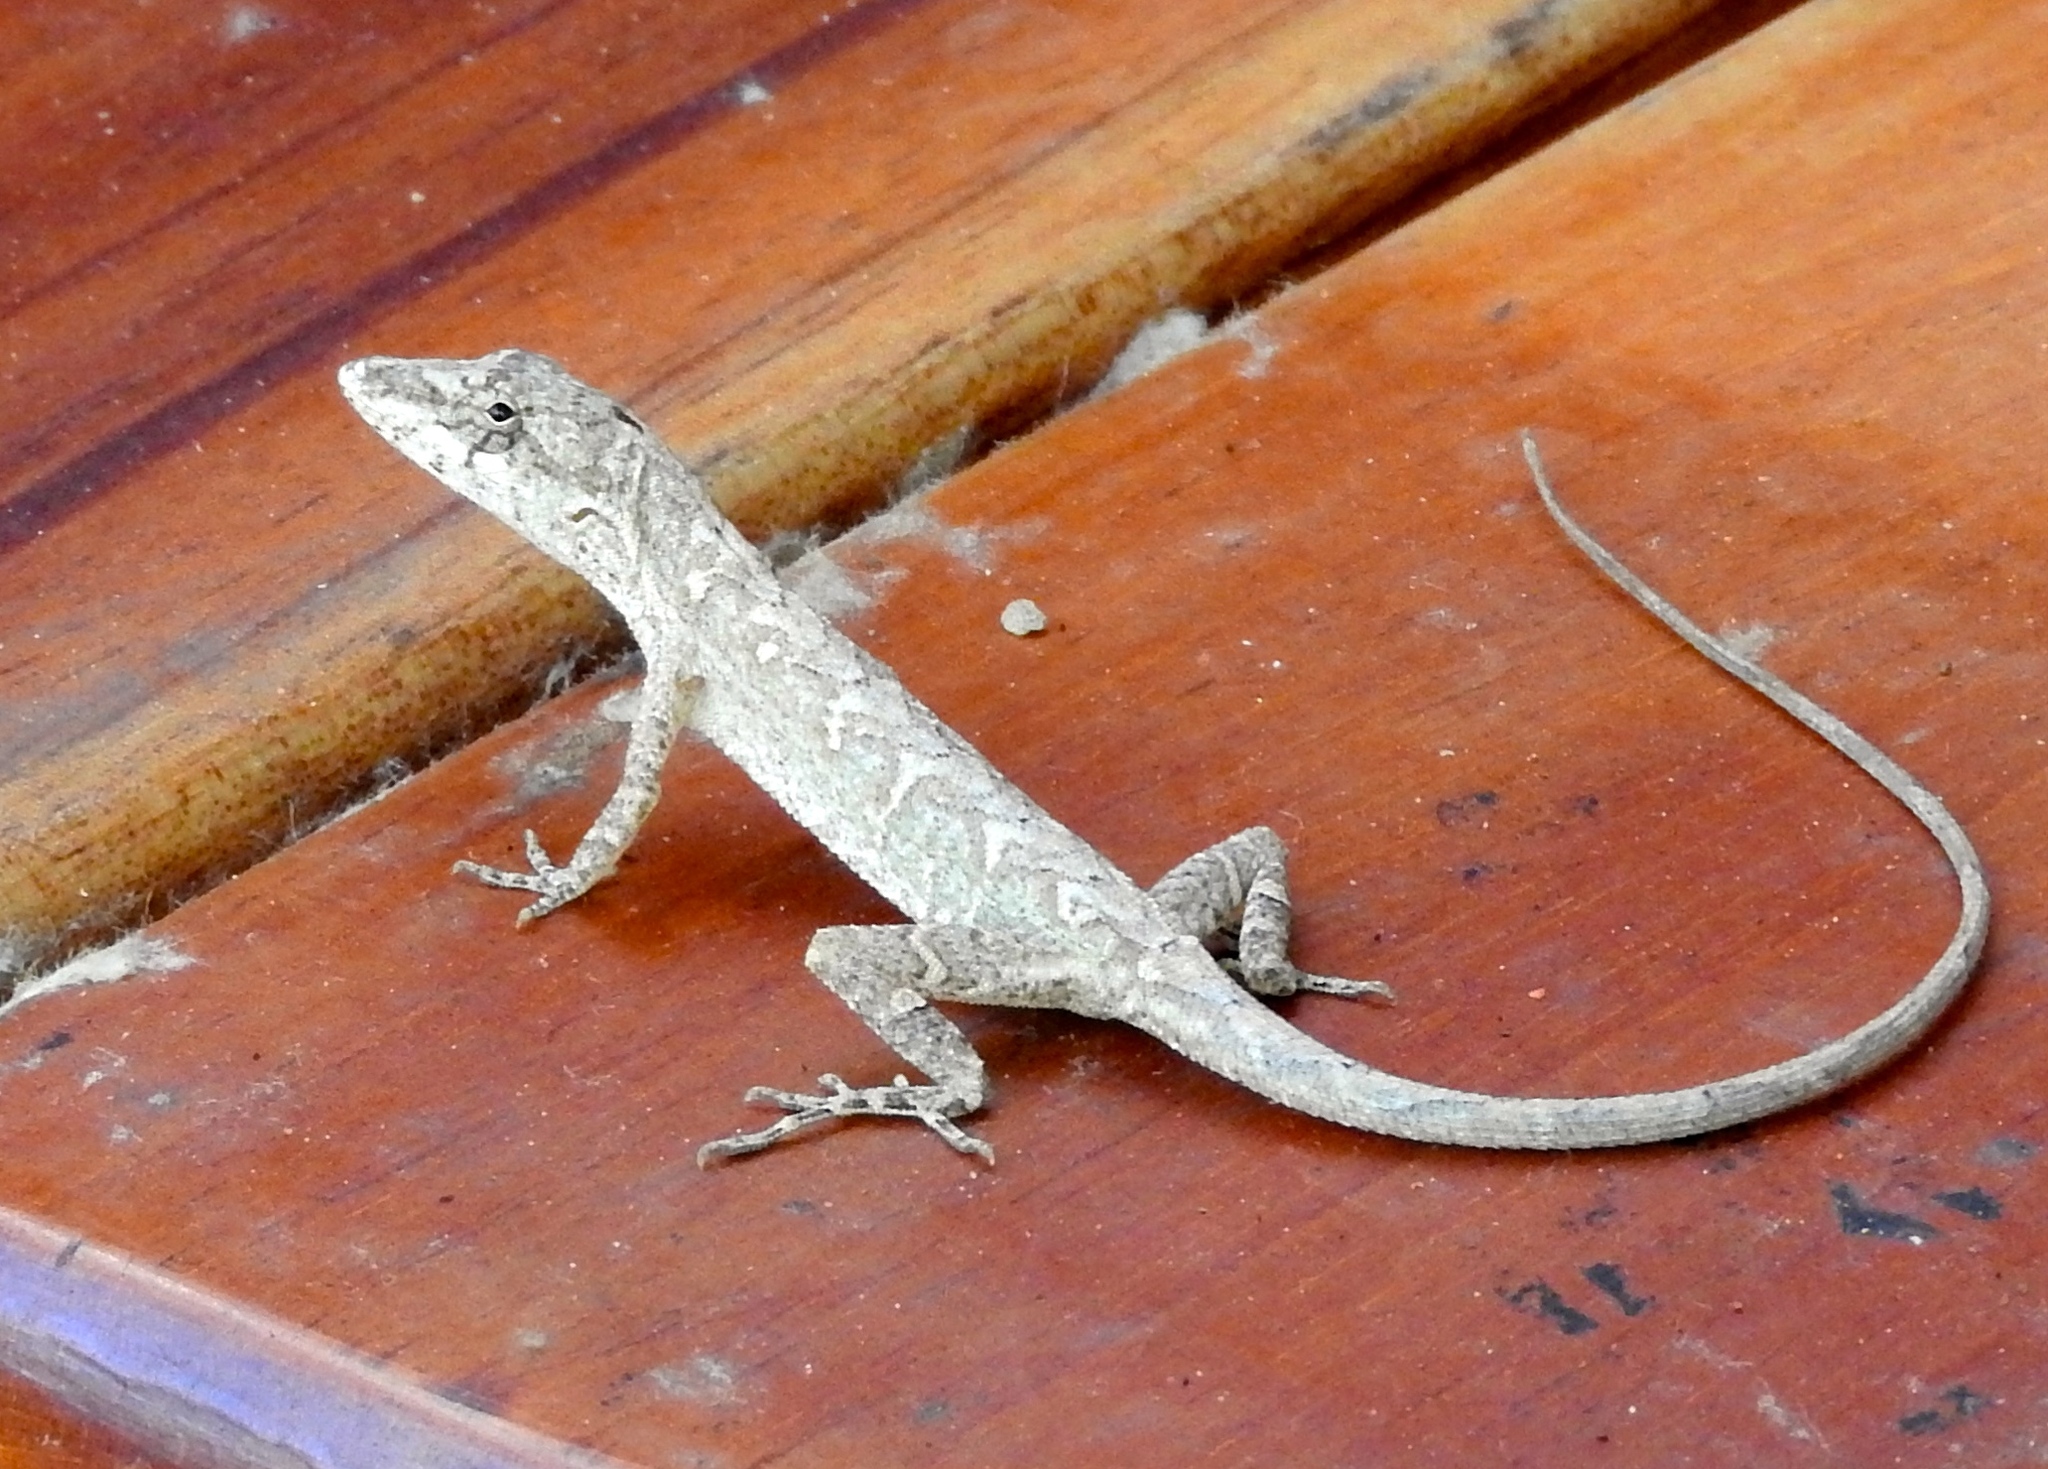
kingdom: Animalia
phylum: Chordata
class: Squamata
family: Dactyloidae
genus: Anolis
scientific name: Anolis nebulosus
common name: Clouded anole
